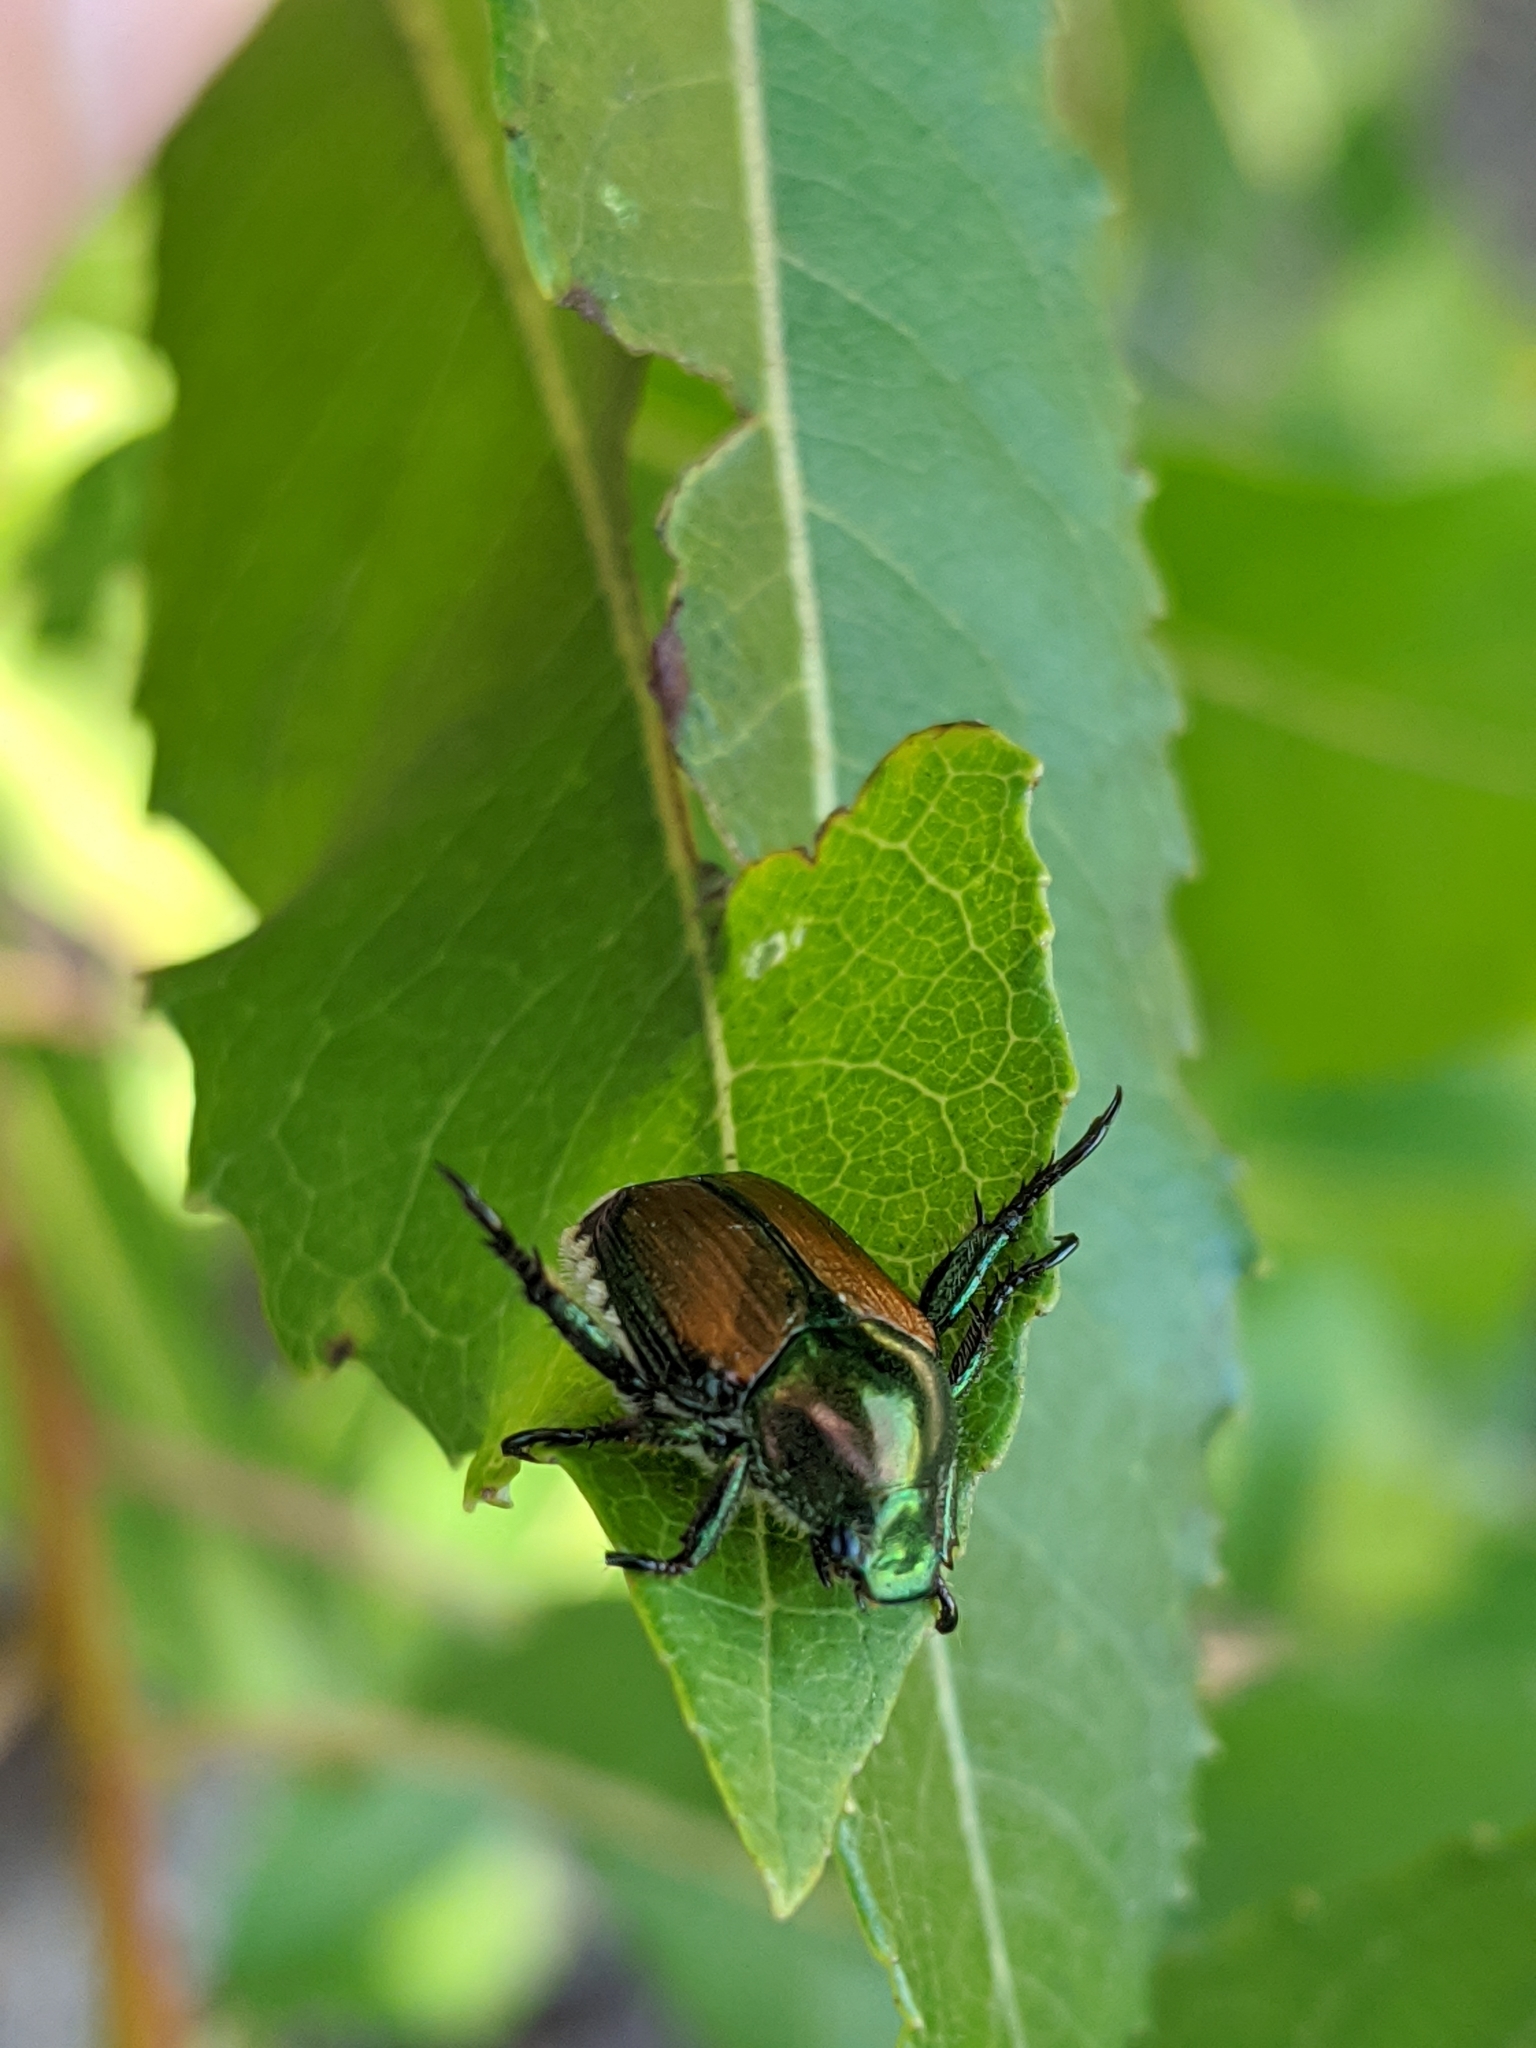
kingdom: Animalia
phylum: Arthropoda
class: Insecta
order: Coleoptera
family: Scarabaeidae
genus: Popillia
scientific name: Popillia japonica
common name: Japanese beetle
